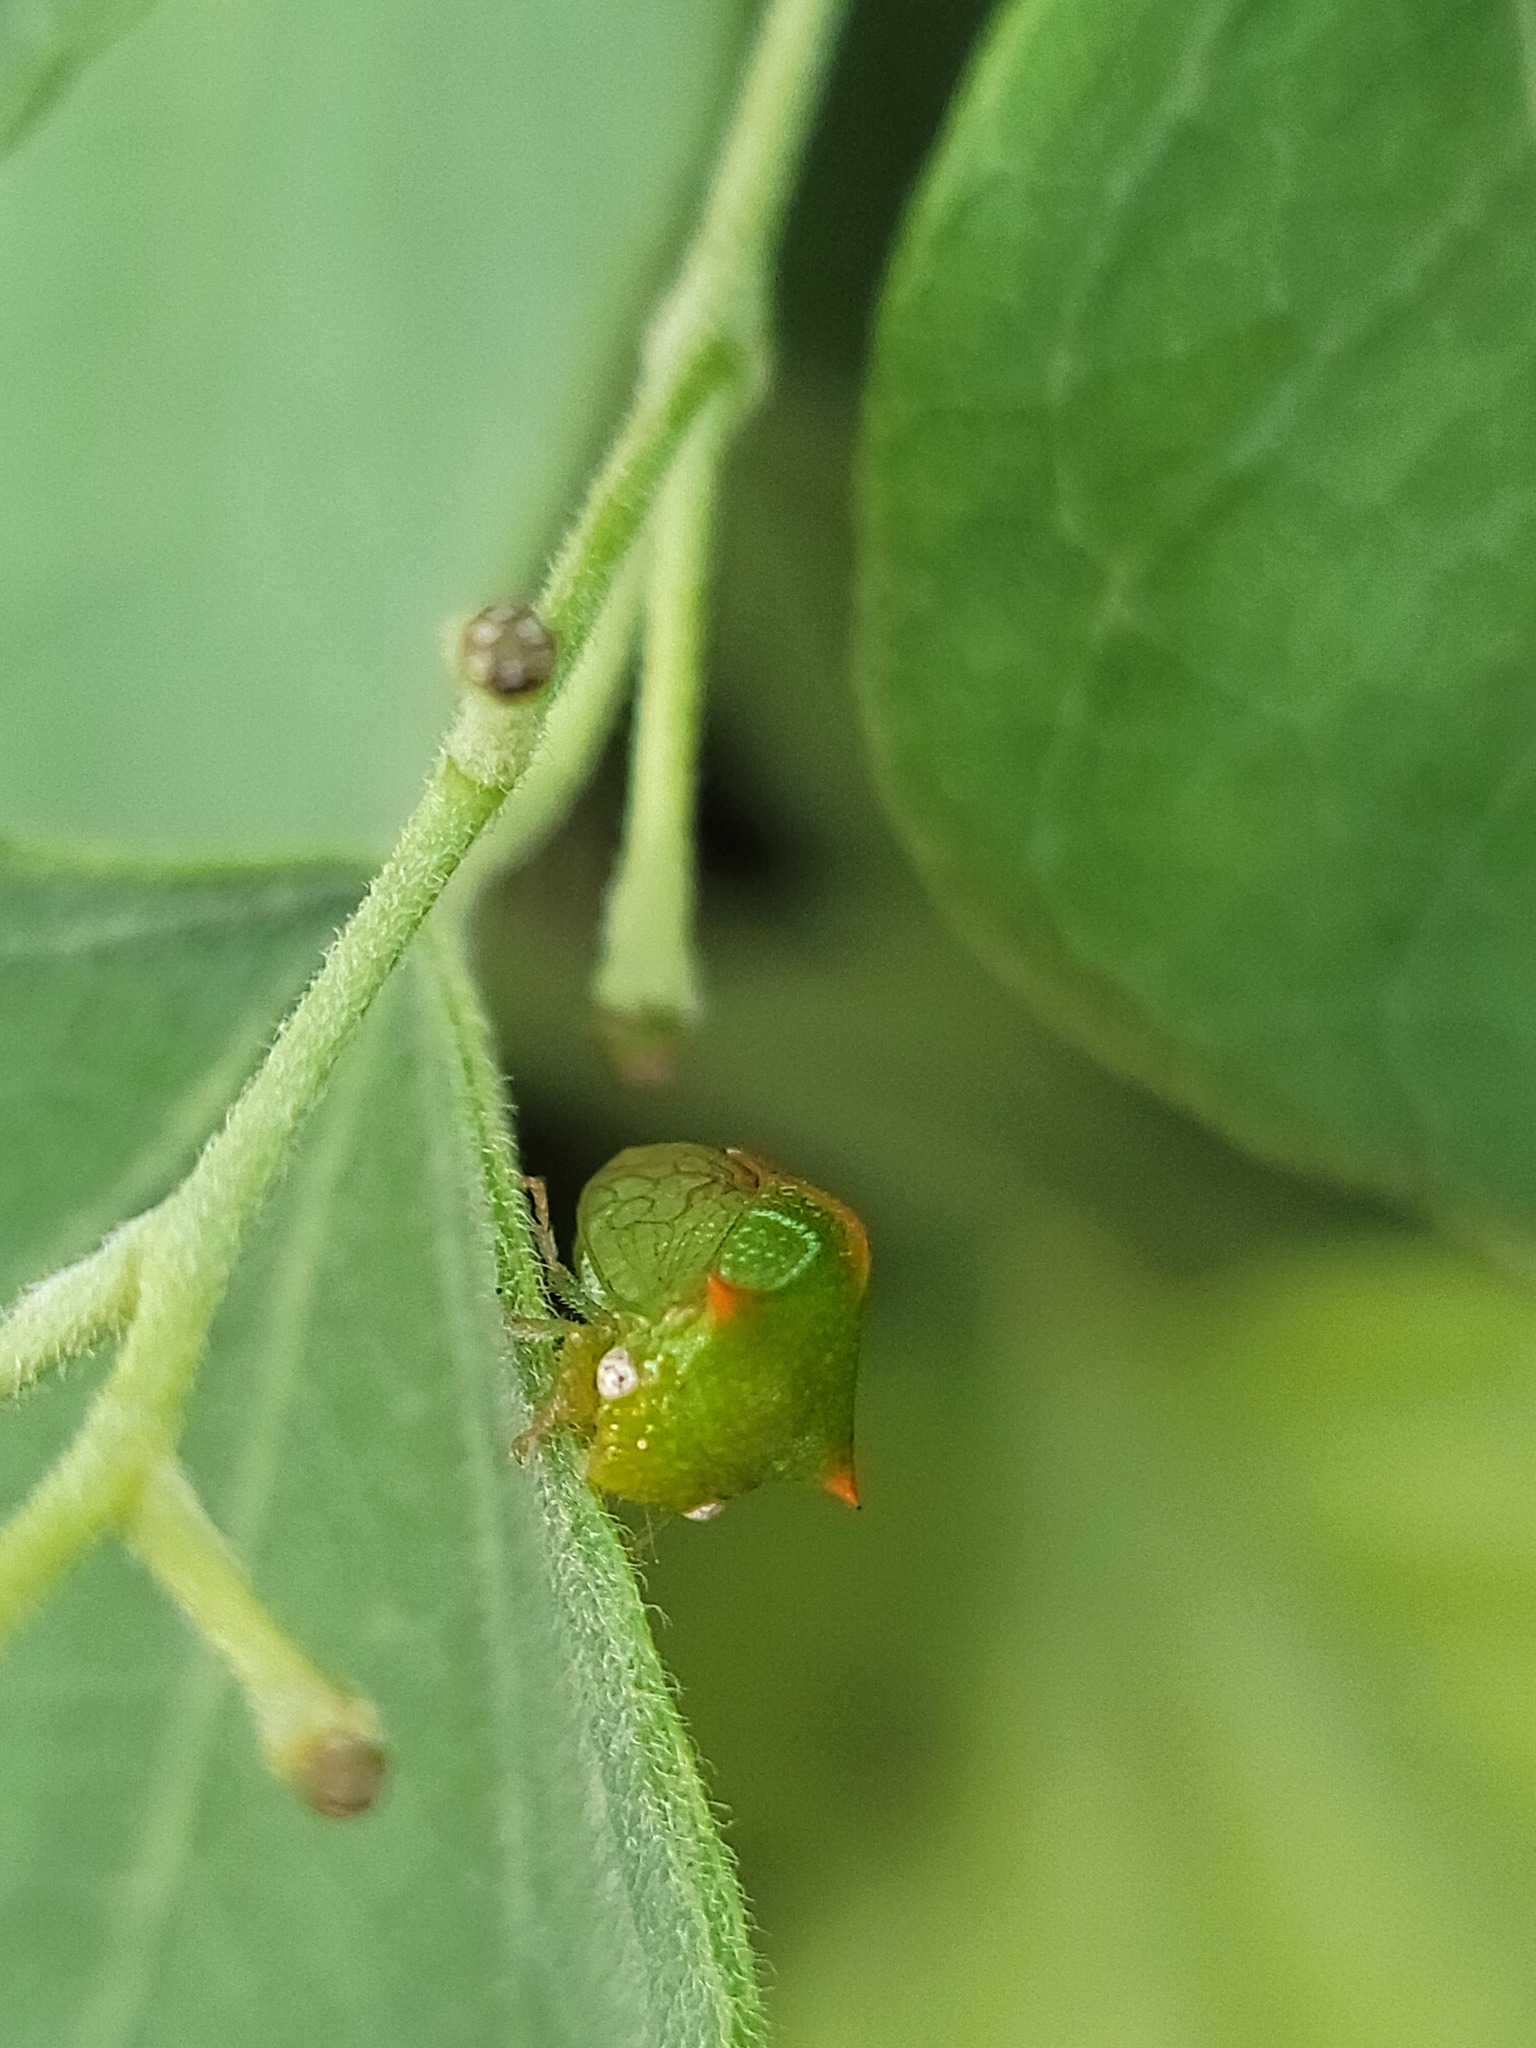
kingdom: Animalia
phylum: Arthropoda
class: Insecta
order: Hemiptera
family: Membracidae
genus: Stictolobus
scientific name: Stictolobus arcuatus
